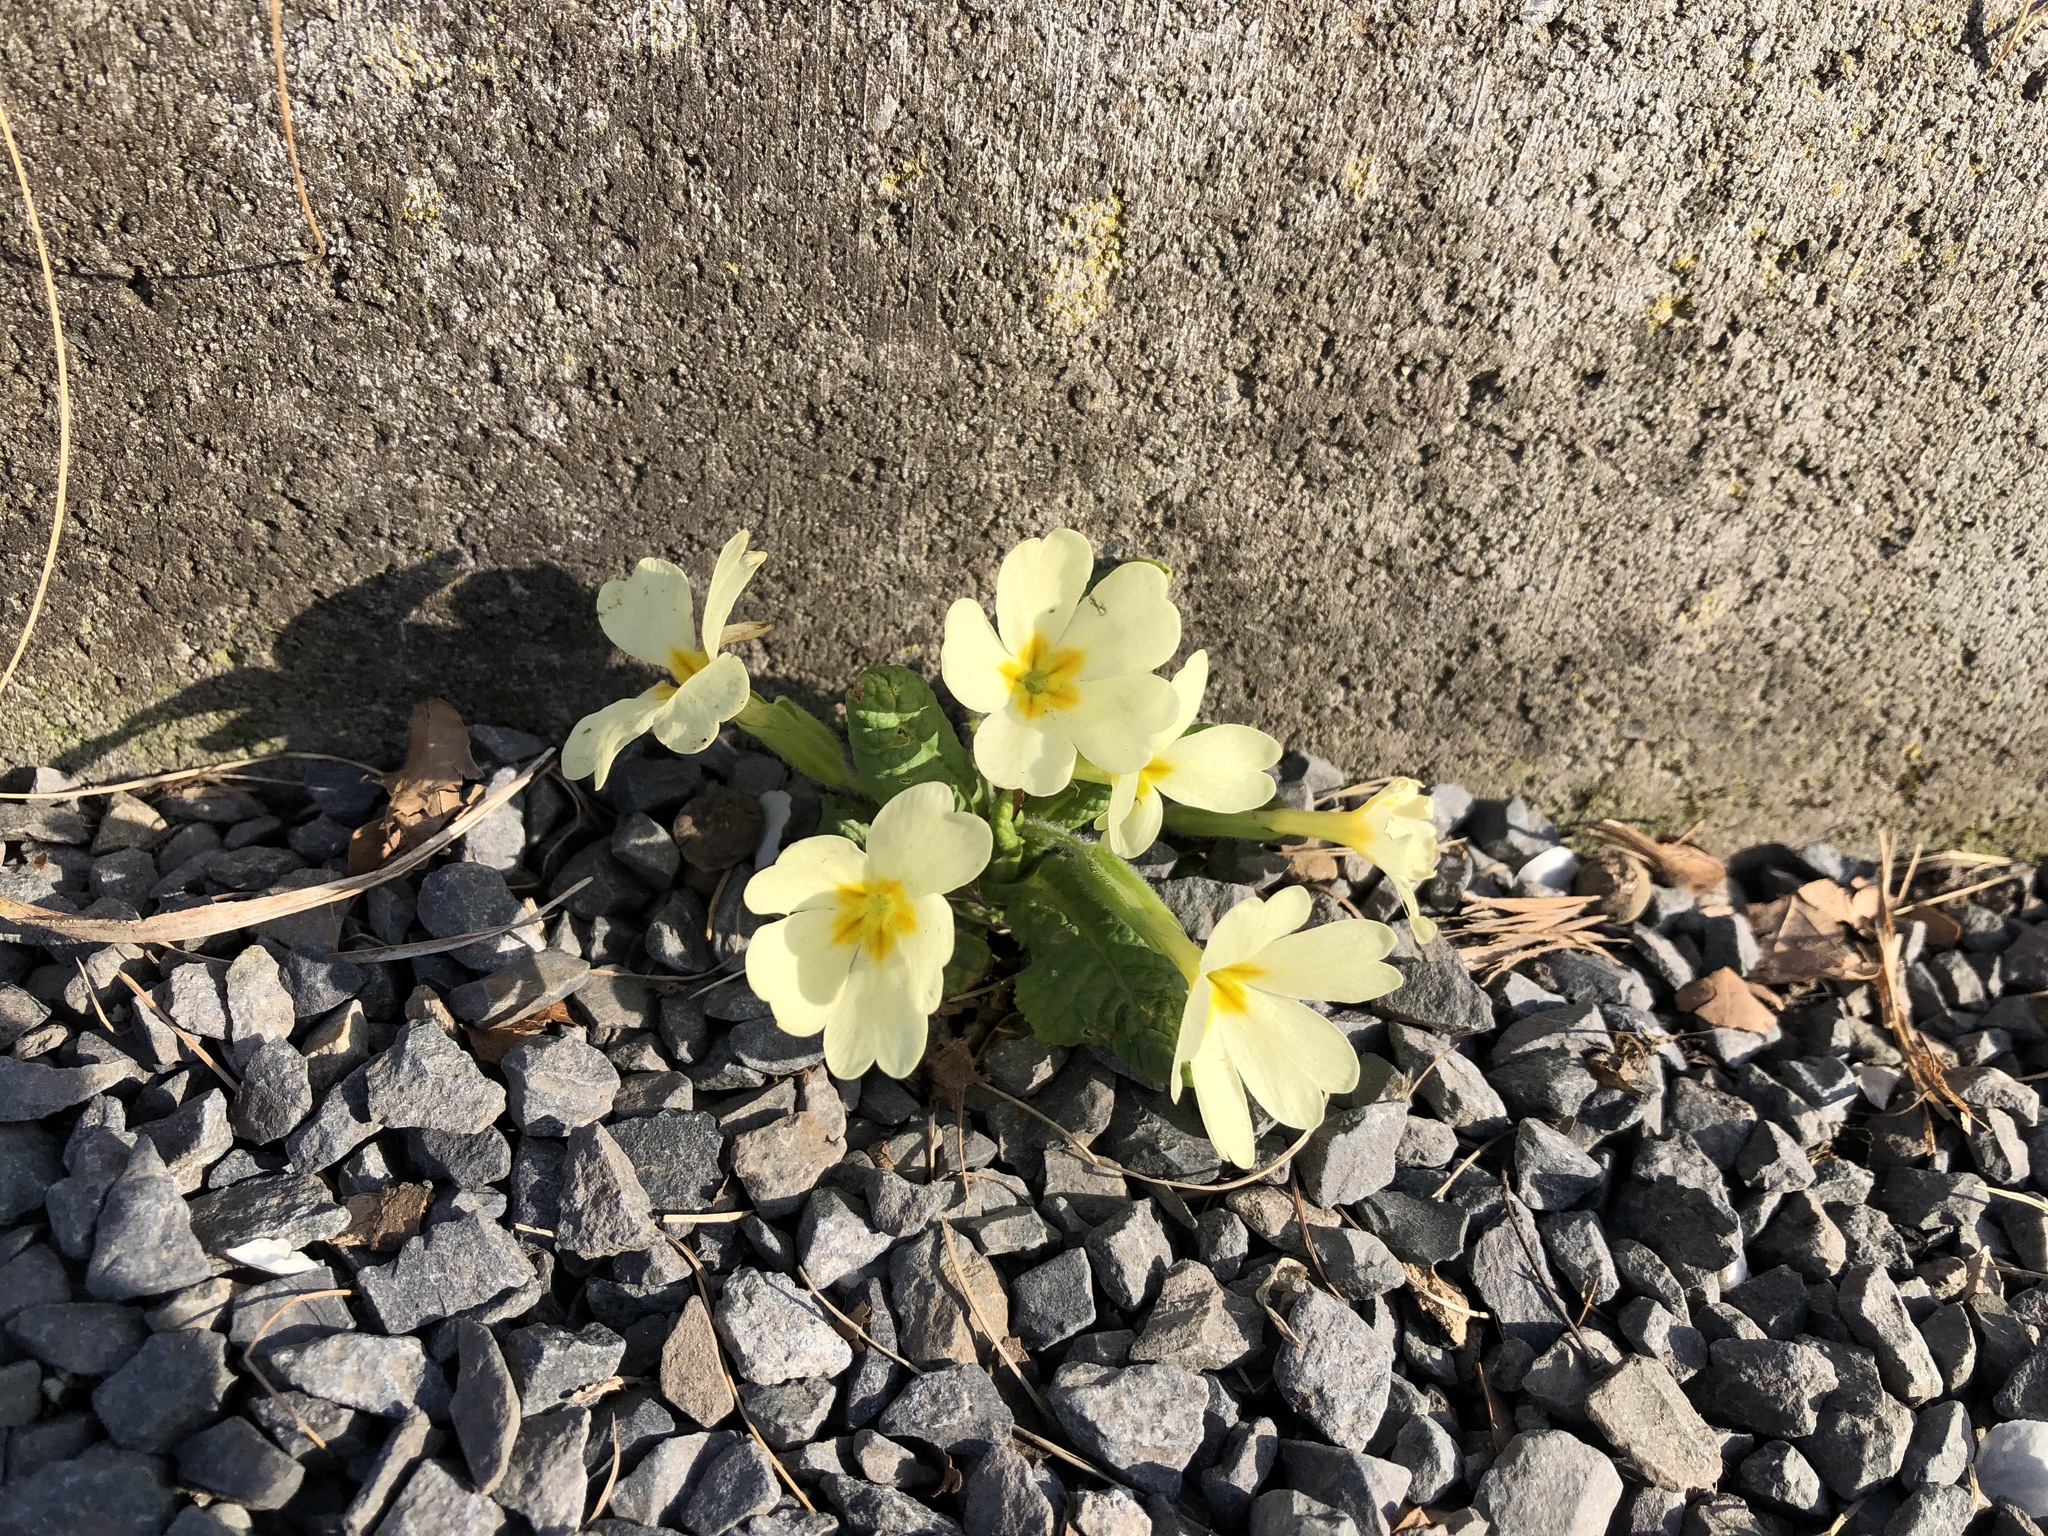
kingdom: Plantae
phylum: Tracheophyta
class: Magnoliopsida
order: Ericales
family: Primulaceae
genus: Primula
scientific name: Primula vulgaris
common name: Primrose
